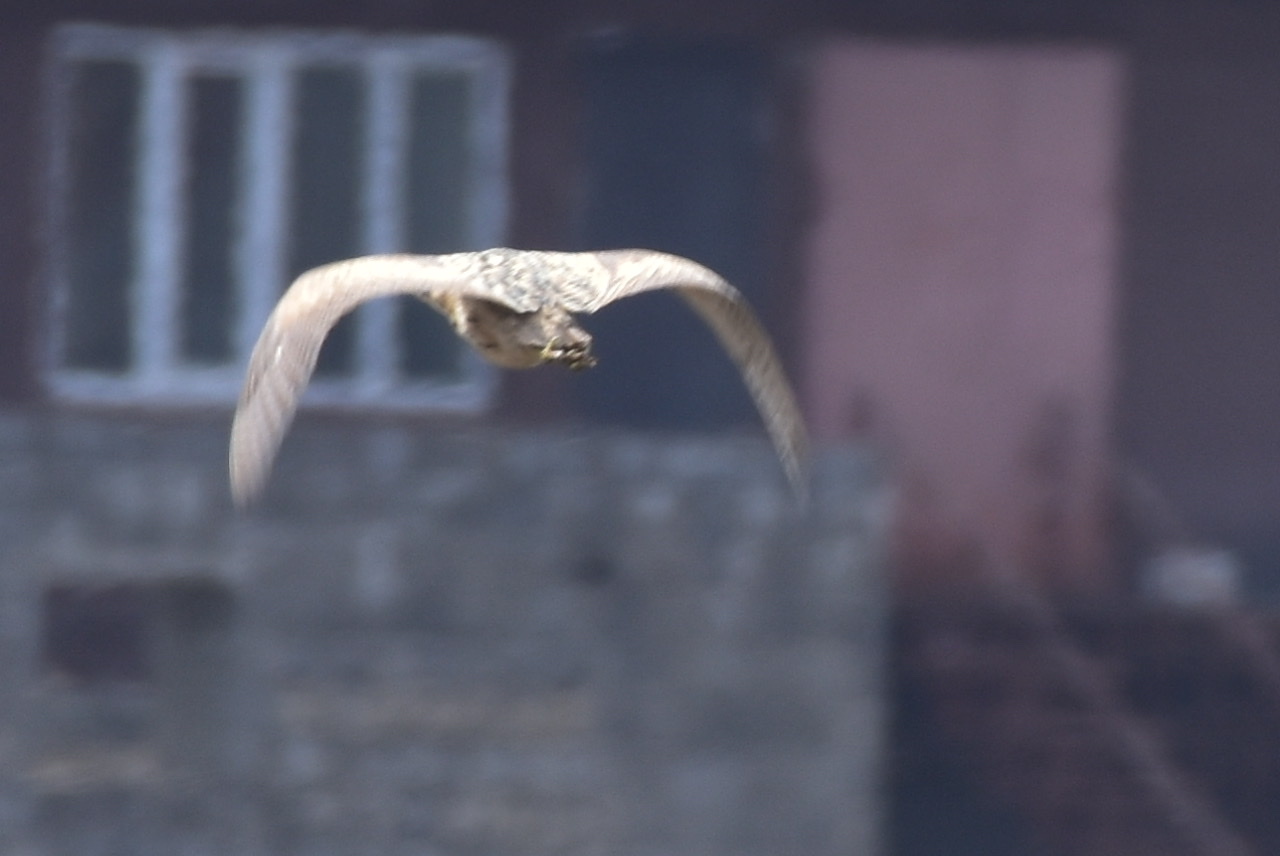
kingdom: Animalia
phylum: Chordata
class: Aves
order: Pelecaniformes
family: Ardeidae
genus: Botaurus
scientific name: Botaurus stellaris
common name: Eurasian bittern
